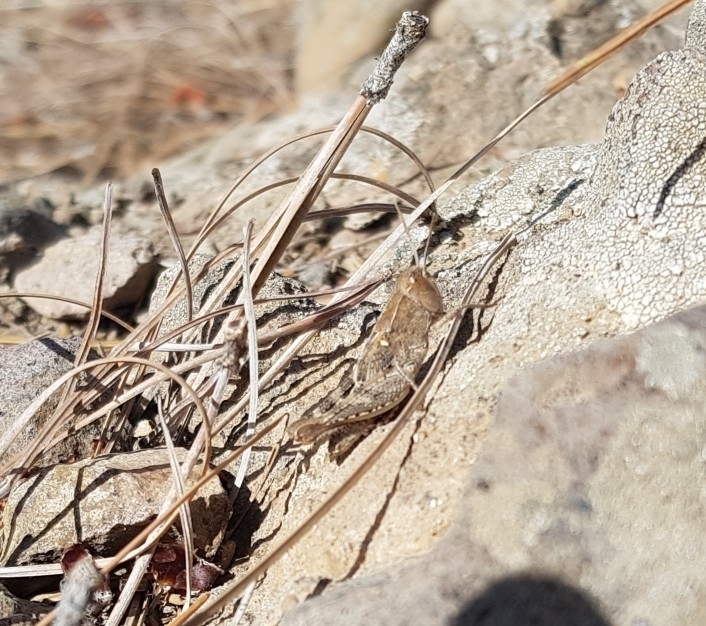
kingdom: Animalia
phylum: Arthropoda
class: Insecta
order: Orthoptera
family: Acrididae
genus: Calliptamus
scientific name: Calliptamus plebeius
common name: Canarian pincer grasshopper
